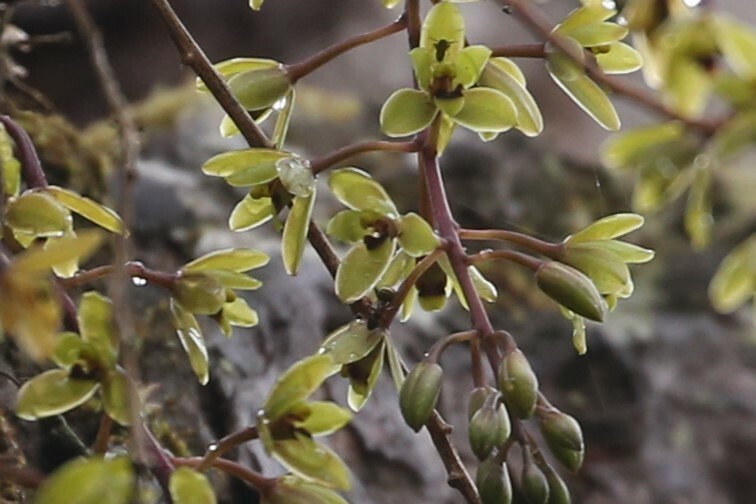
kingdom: Plantae
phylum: Tracheophyta
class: Liliopsida
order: Asparagales
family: Orchidaceae
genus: Cymbidium
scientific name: Cymbidium suave
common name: Snake orchid
